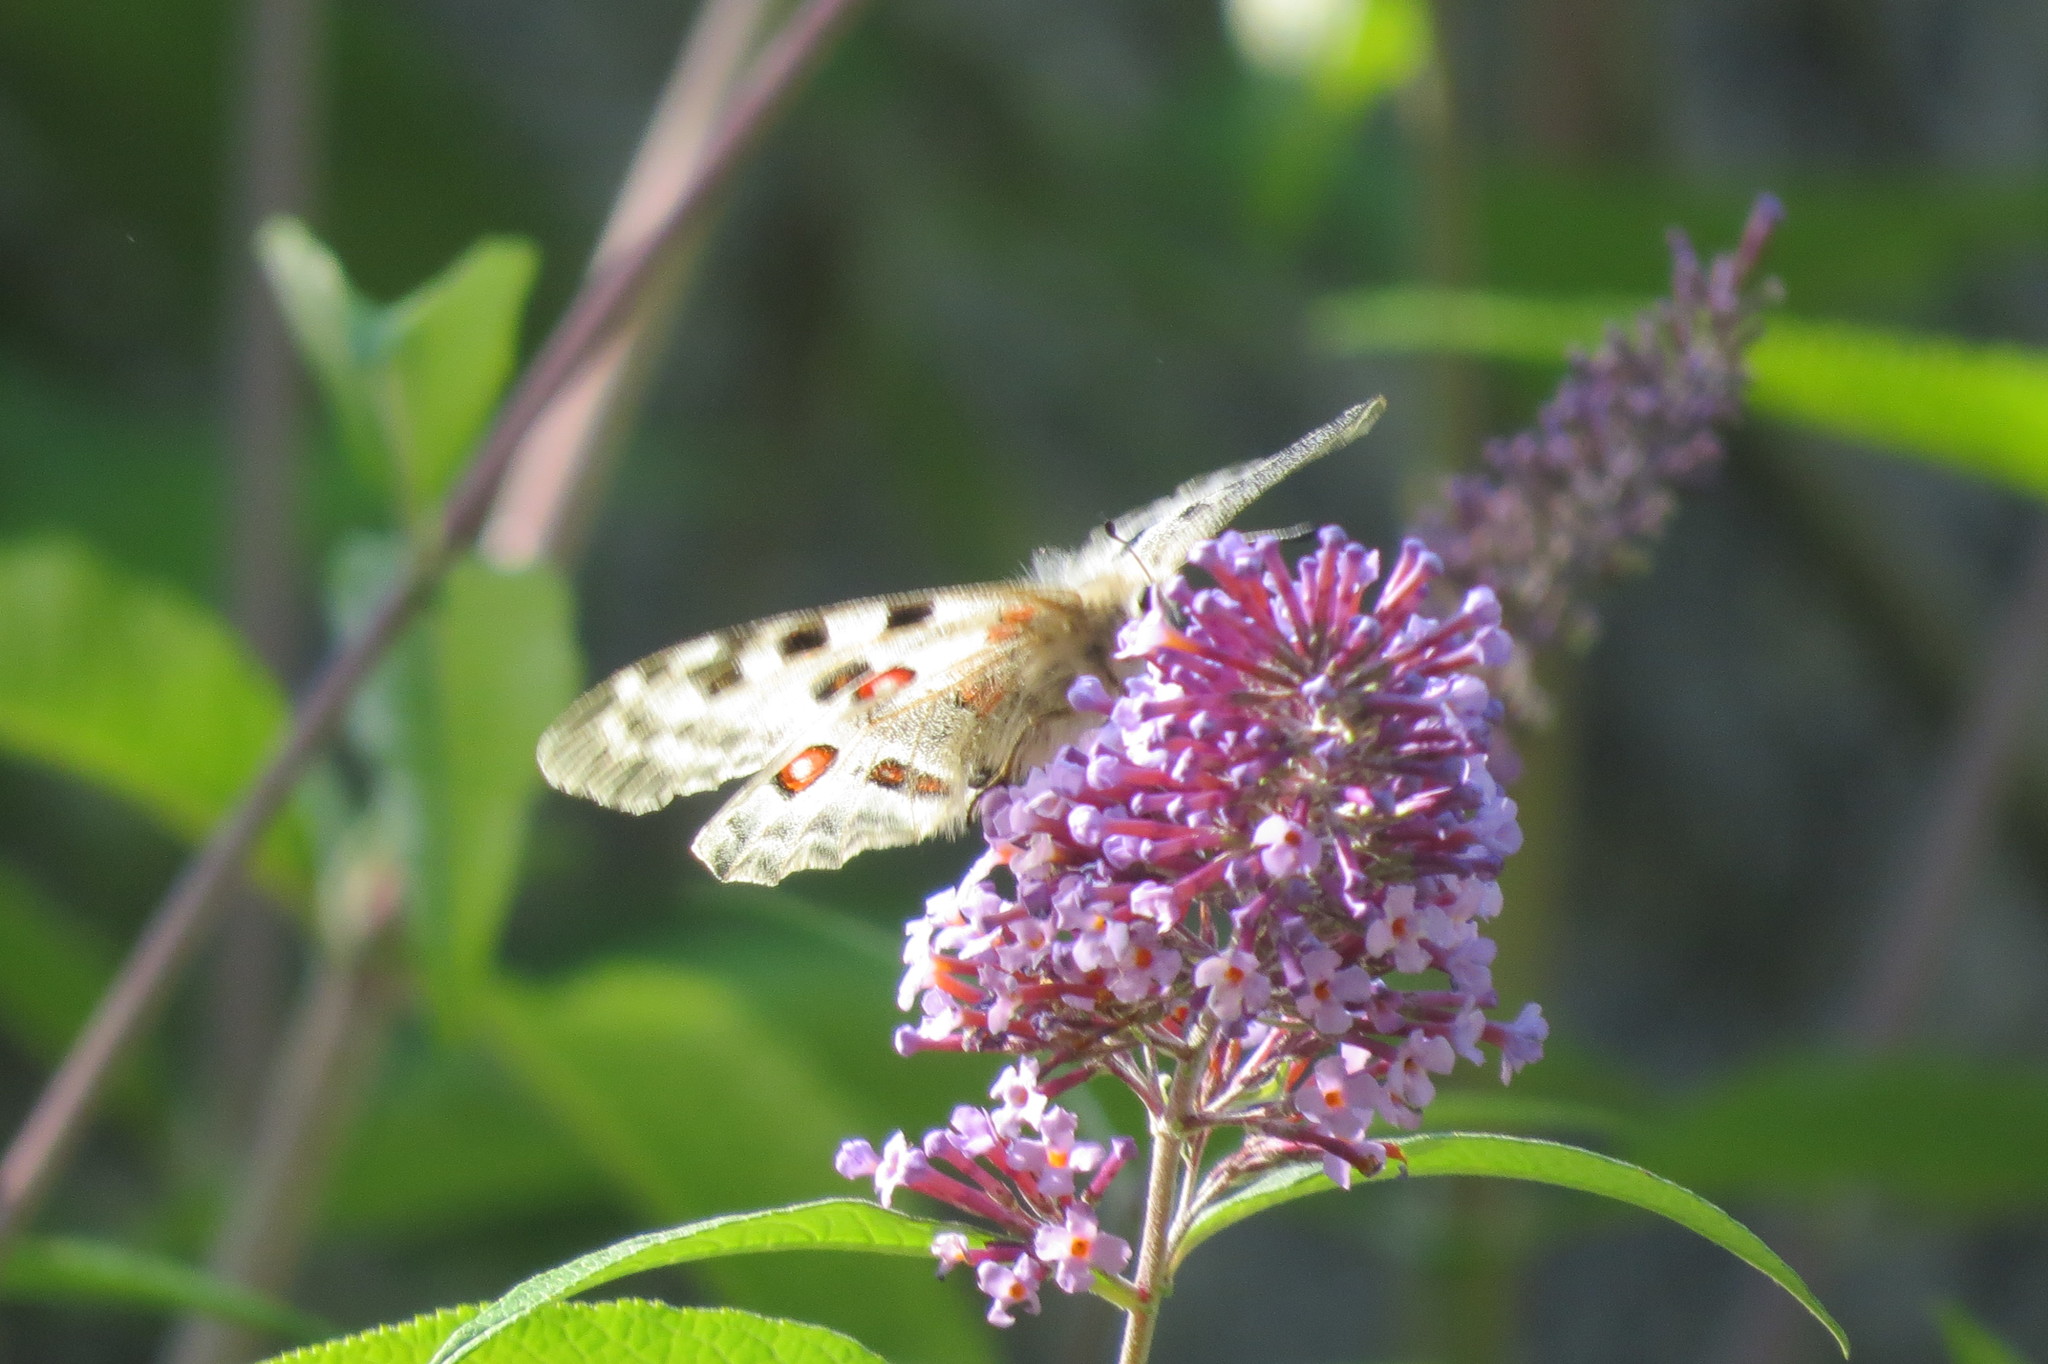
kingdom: Animalia
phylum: Arthropoda
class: Insecta
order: Lepidoptera
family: Papilionidae
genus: Parnassius
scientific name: Parnassius apollo
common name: Apollo
